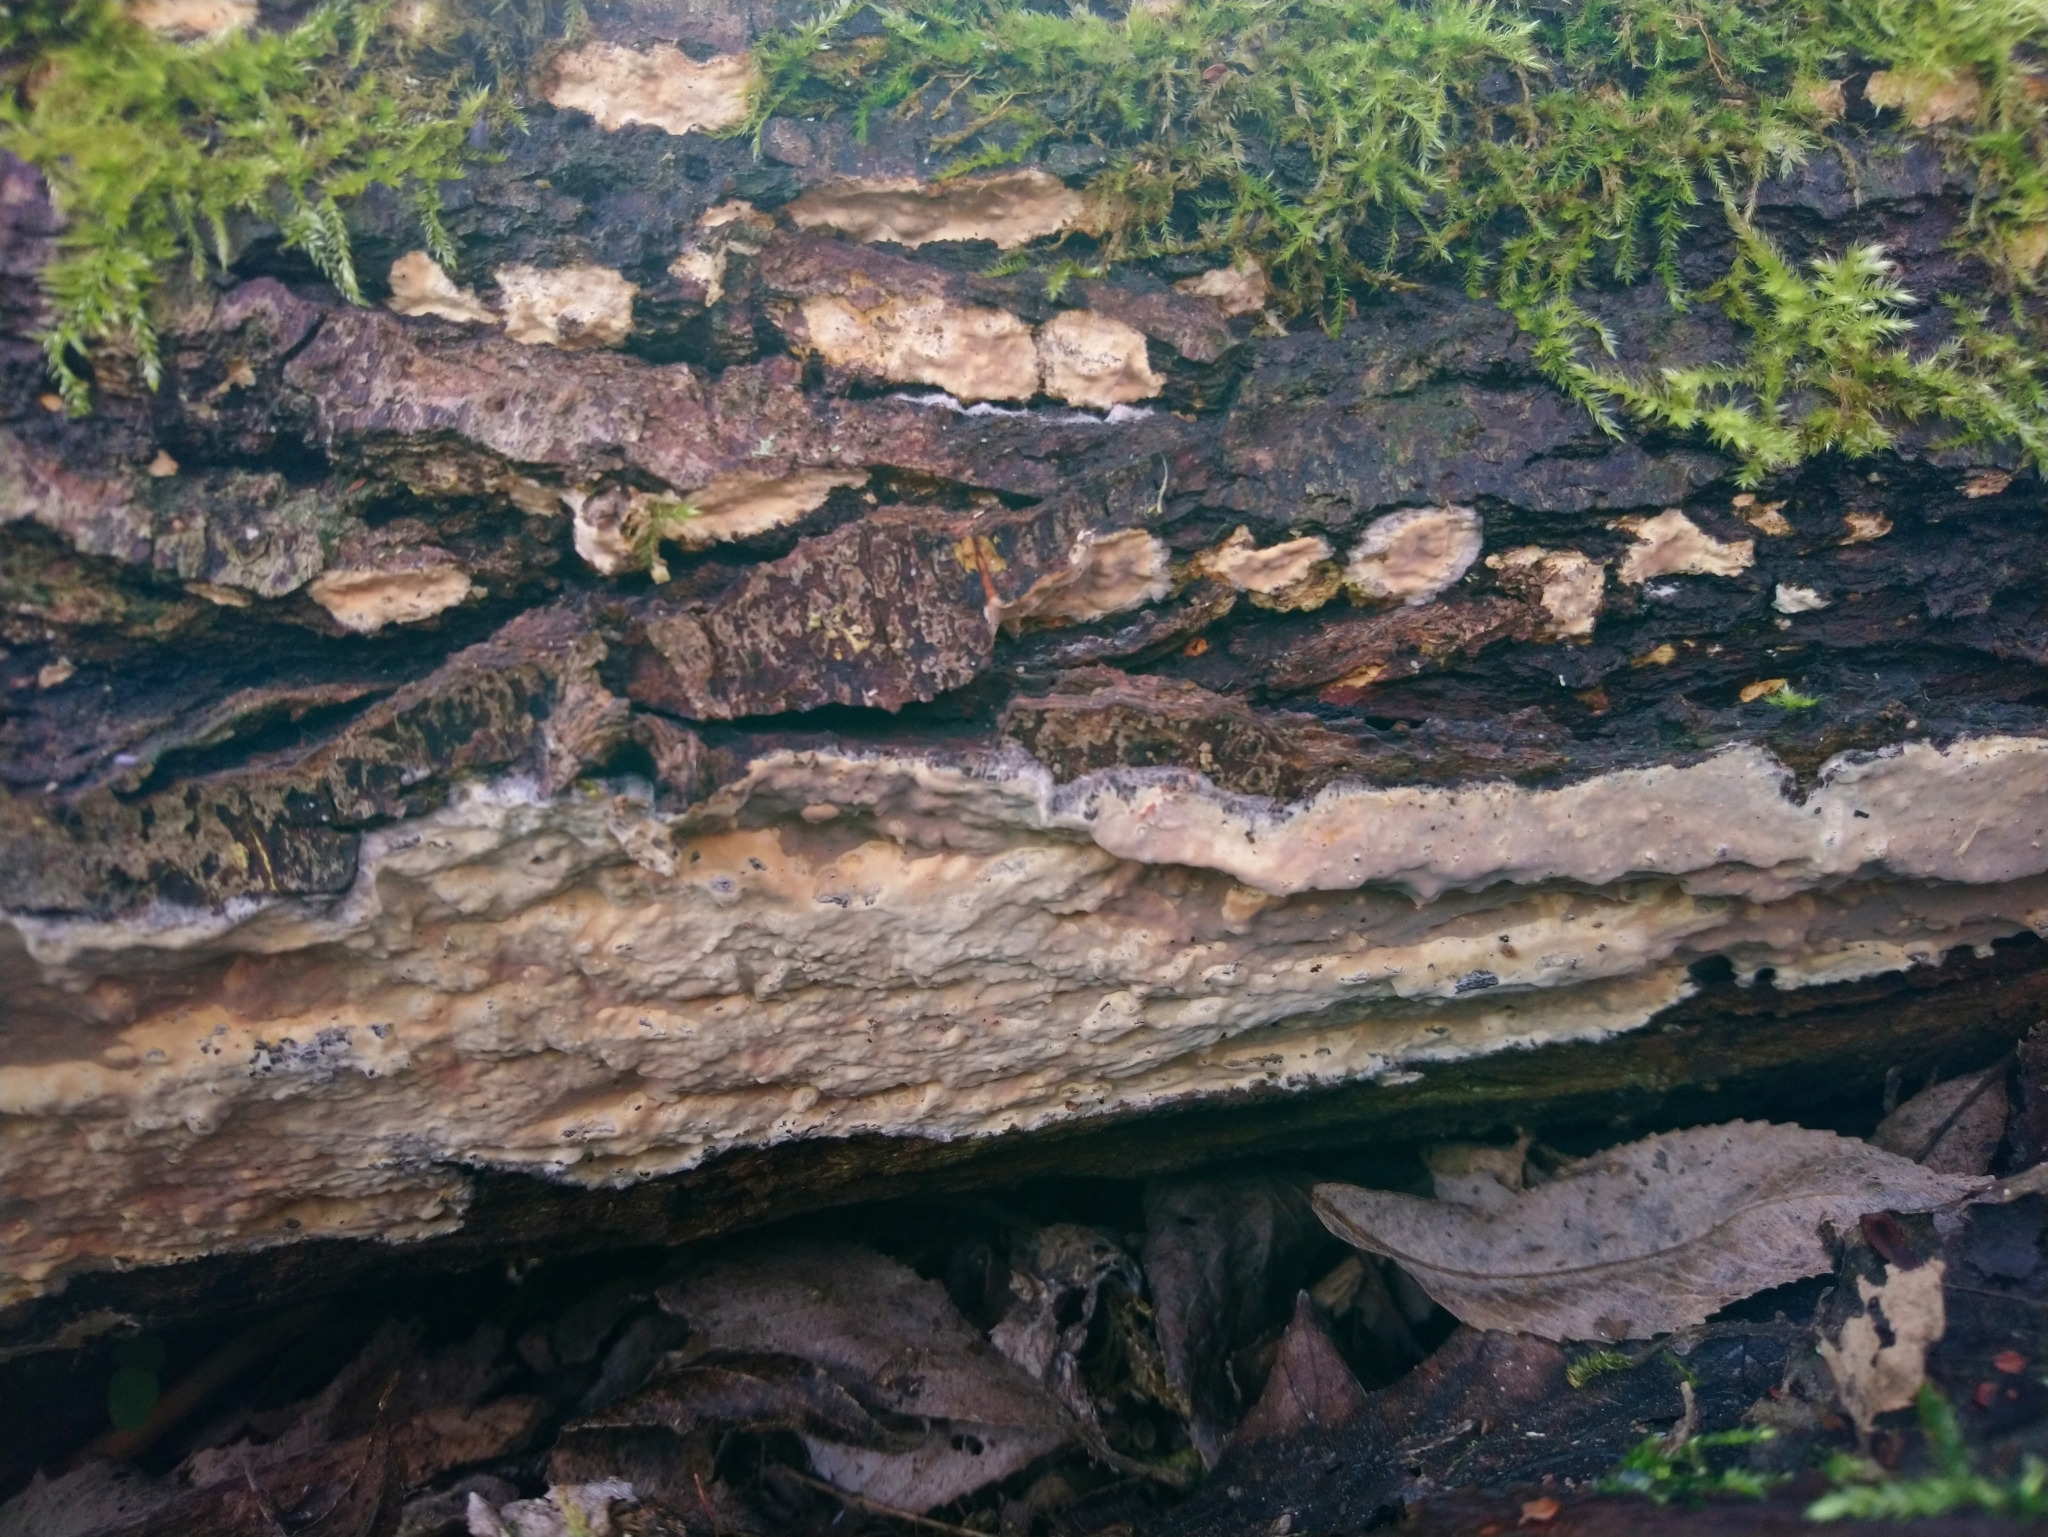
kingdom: Fungi
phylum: Basidiomycota
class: Agaricomycetes
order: Russulales
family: Peniophoraceae
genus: Scytinostroma
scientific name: Scytinostroma portentosum
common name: Mothball crust
